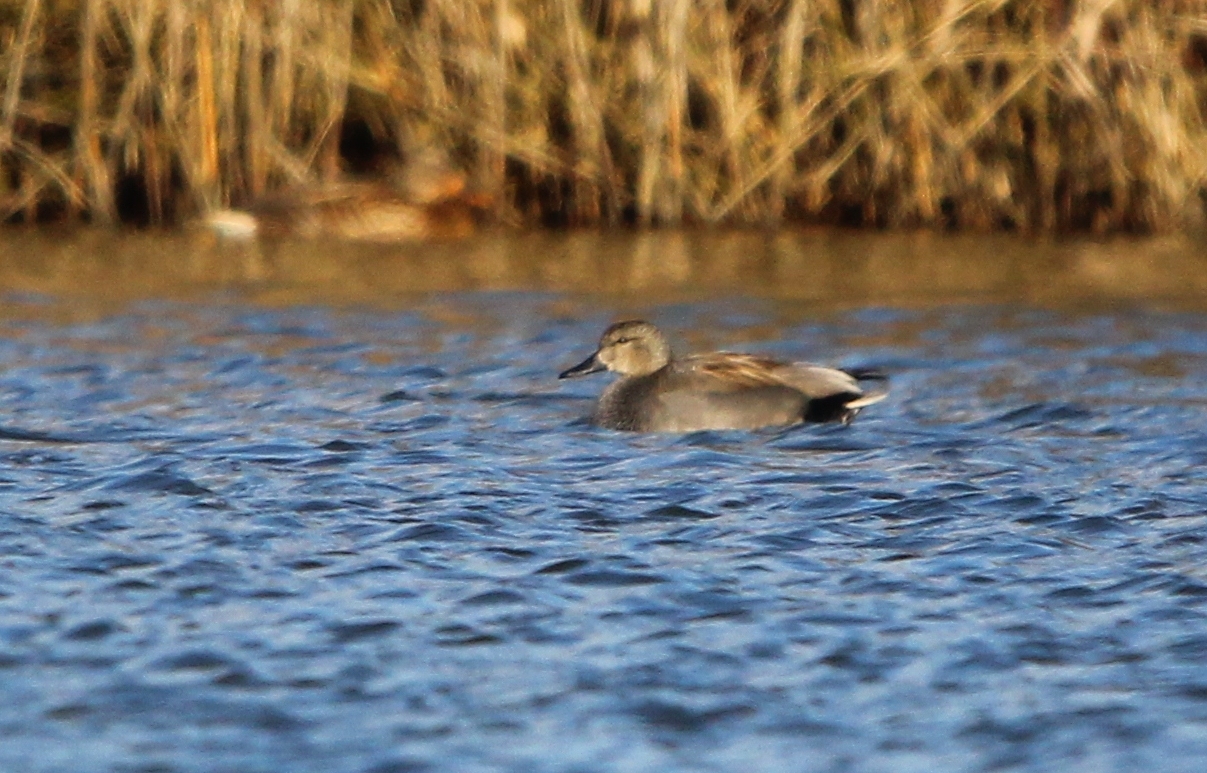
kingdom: Animalia
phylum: Chordata
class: Aves
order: Anseriformes
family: Anatidae
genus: Mareca
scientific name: Mareca strepera
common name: Gadwall
